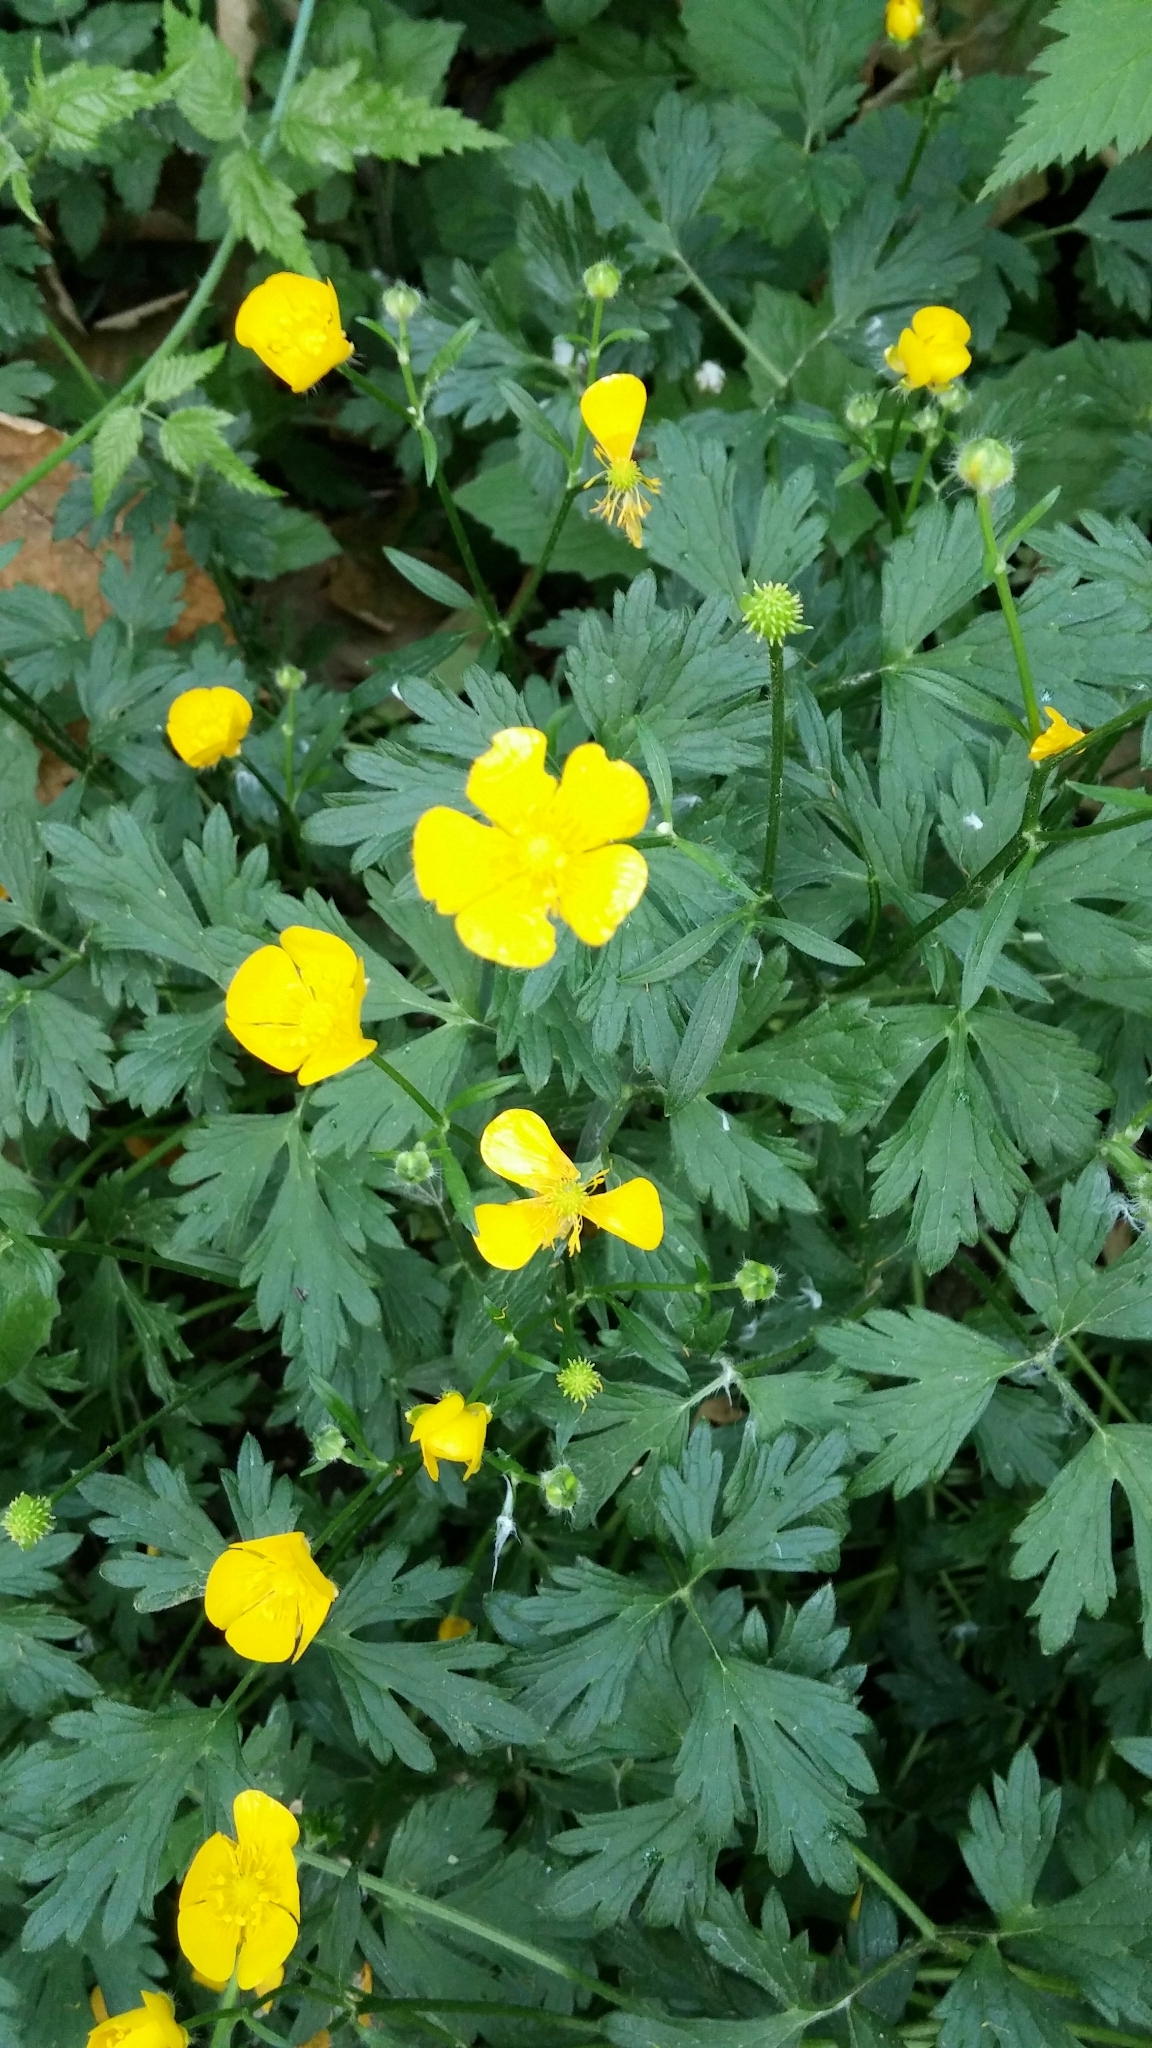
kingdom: Plantae
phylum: Tracheophyta
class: Magnoliopsida
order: Ranunculales
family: Ranunculaceae
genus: Ranunculus
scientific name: Ranunculus repens
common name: Creeping buttercup
